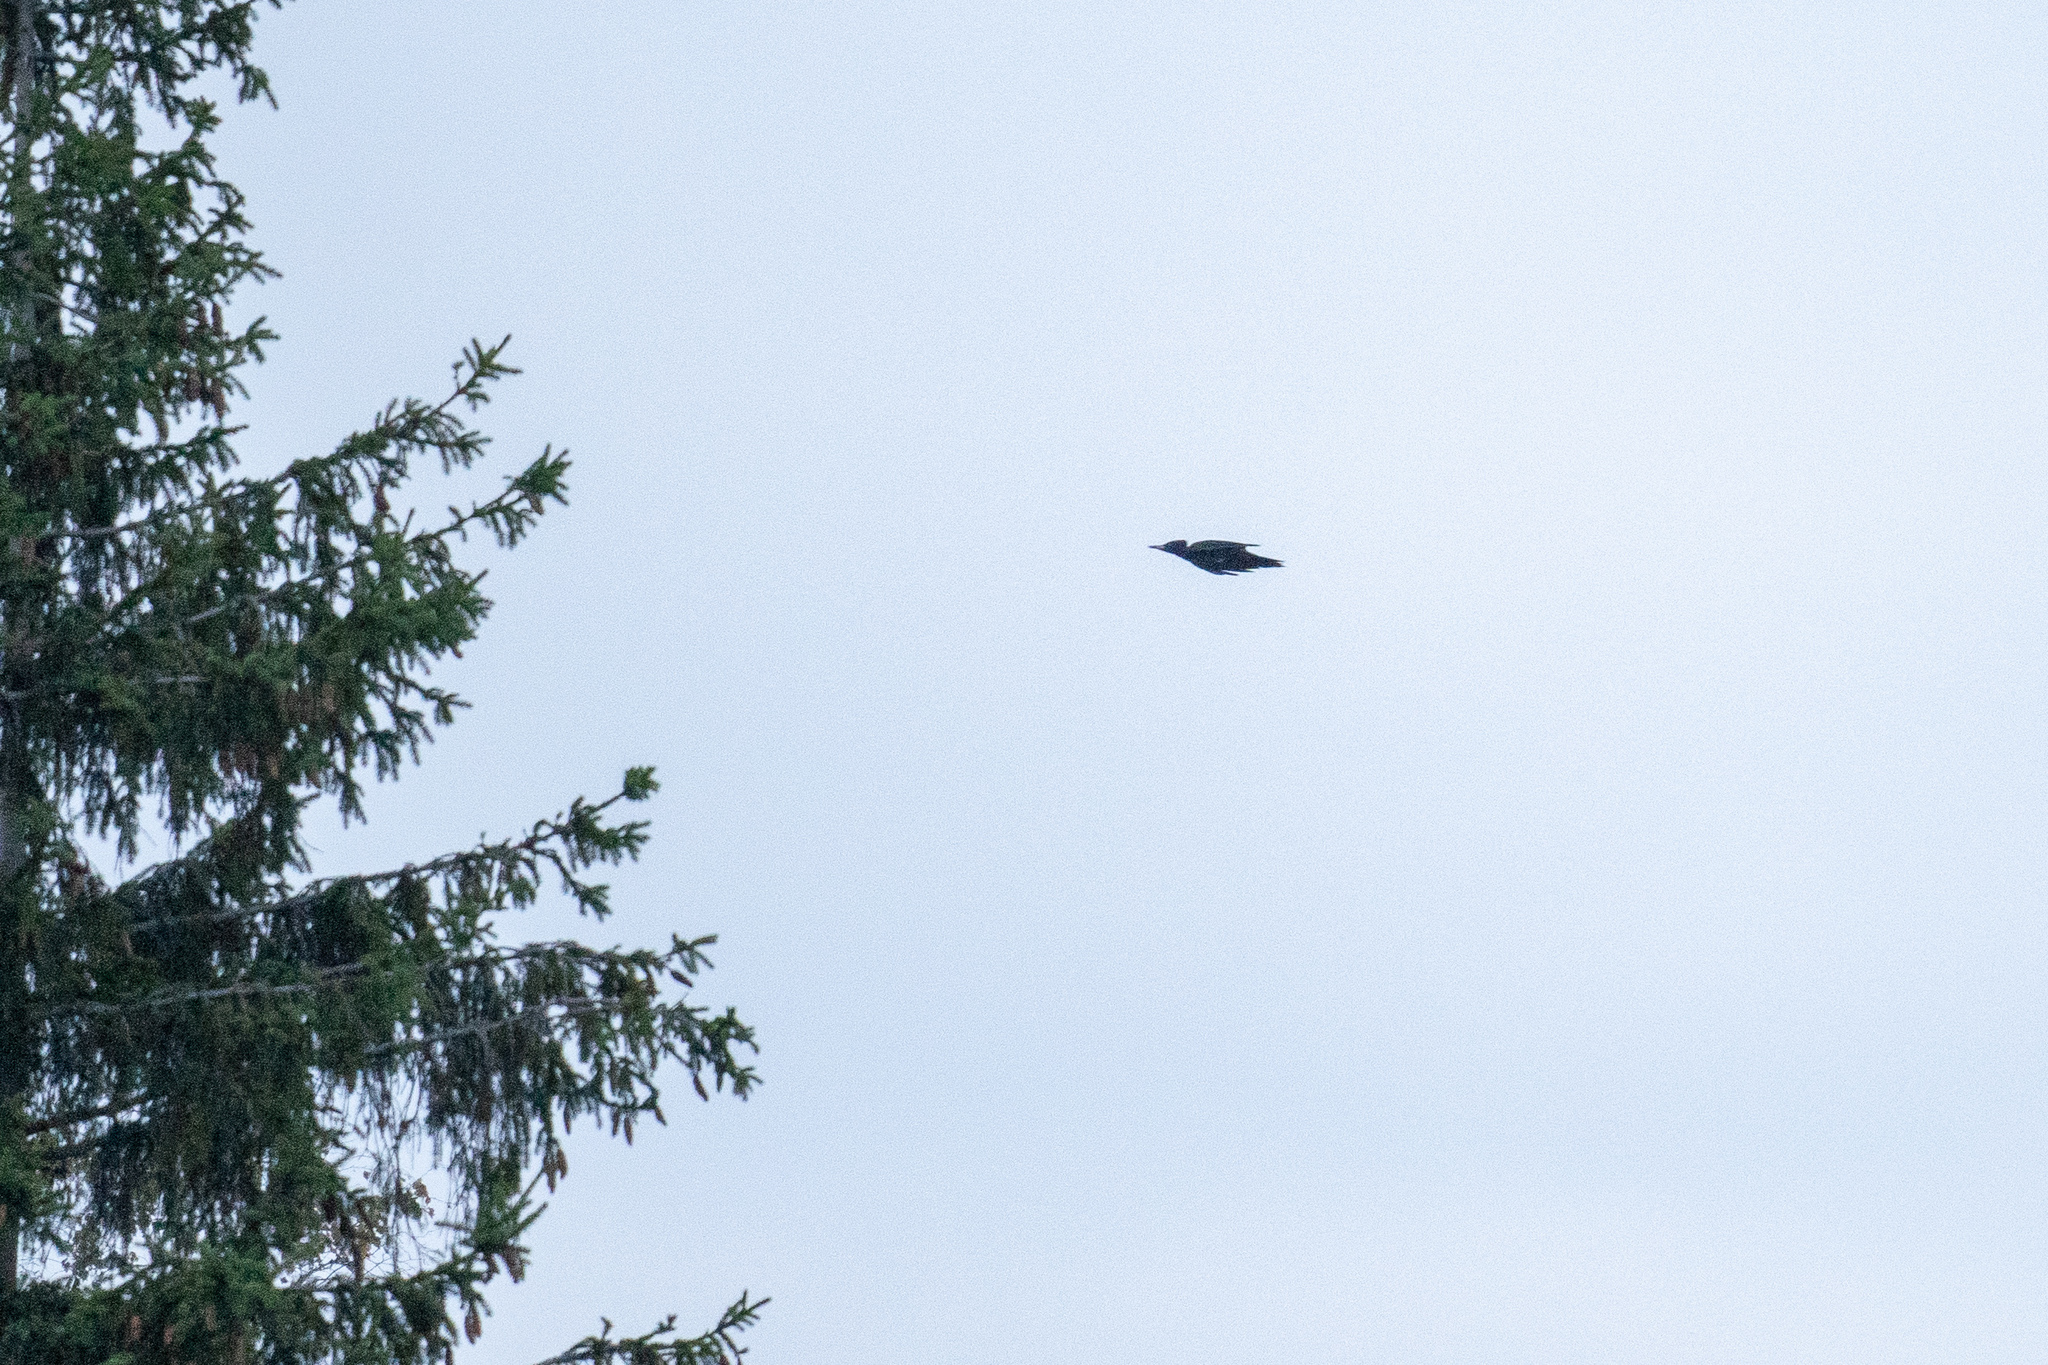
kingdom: Animalia
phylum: Chordata
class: Aves
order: Piciformes
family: Picidae
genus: Dryocopus
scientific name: Dryocopus martius
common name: Black woodpecker
